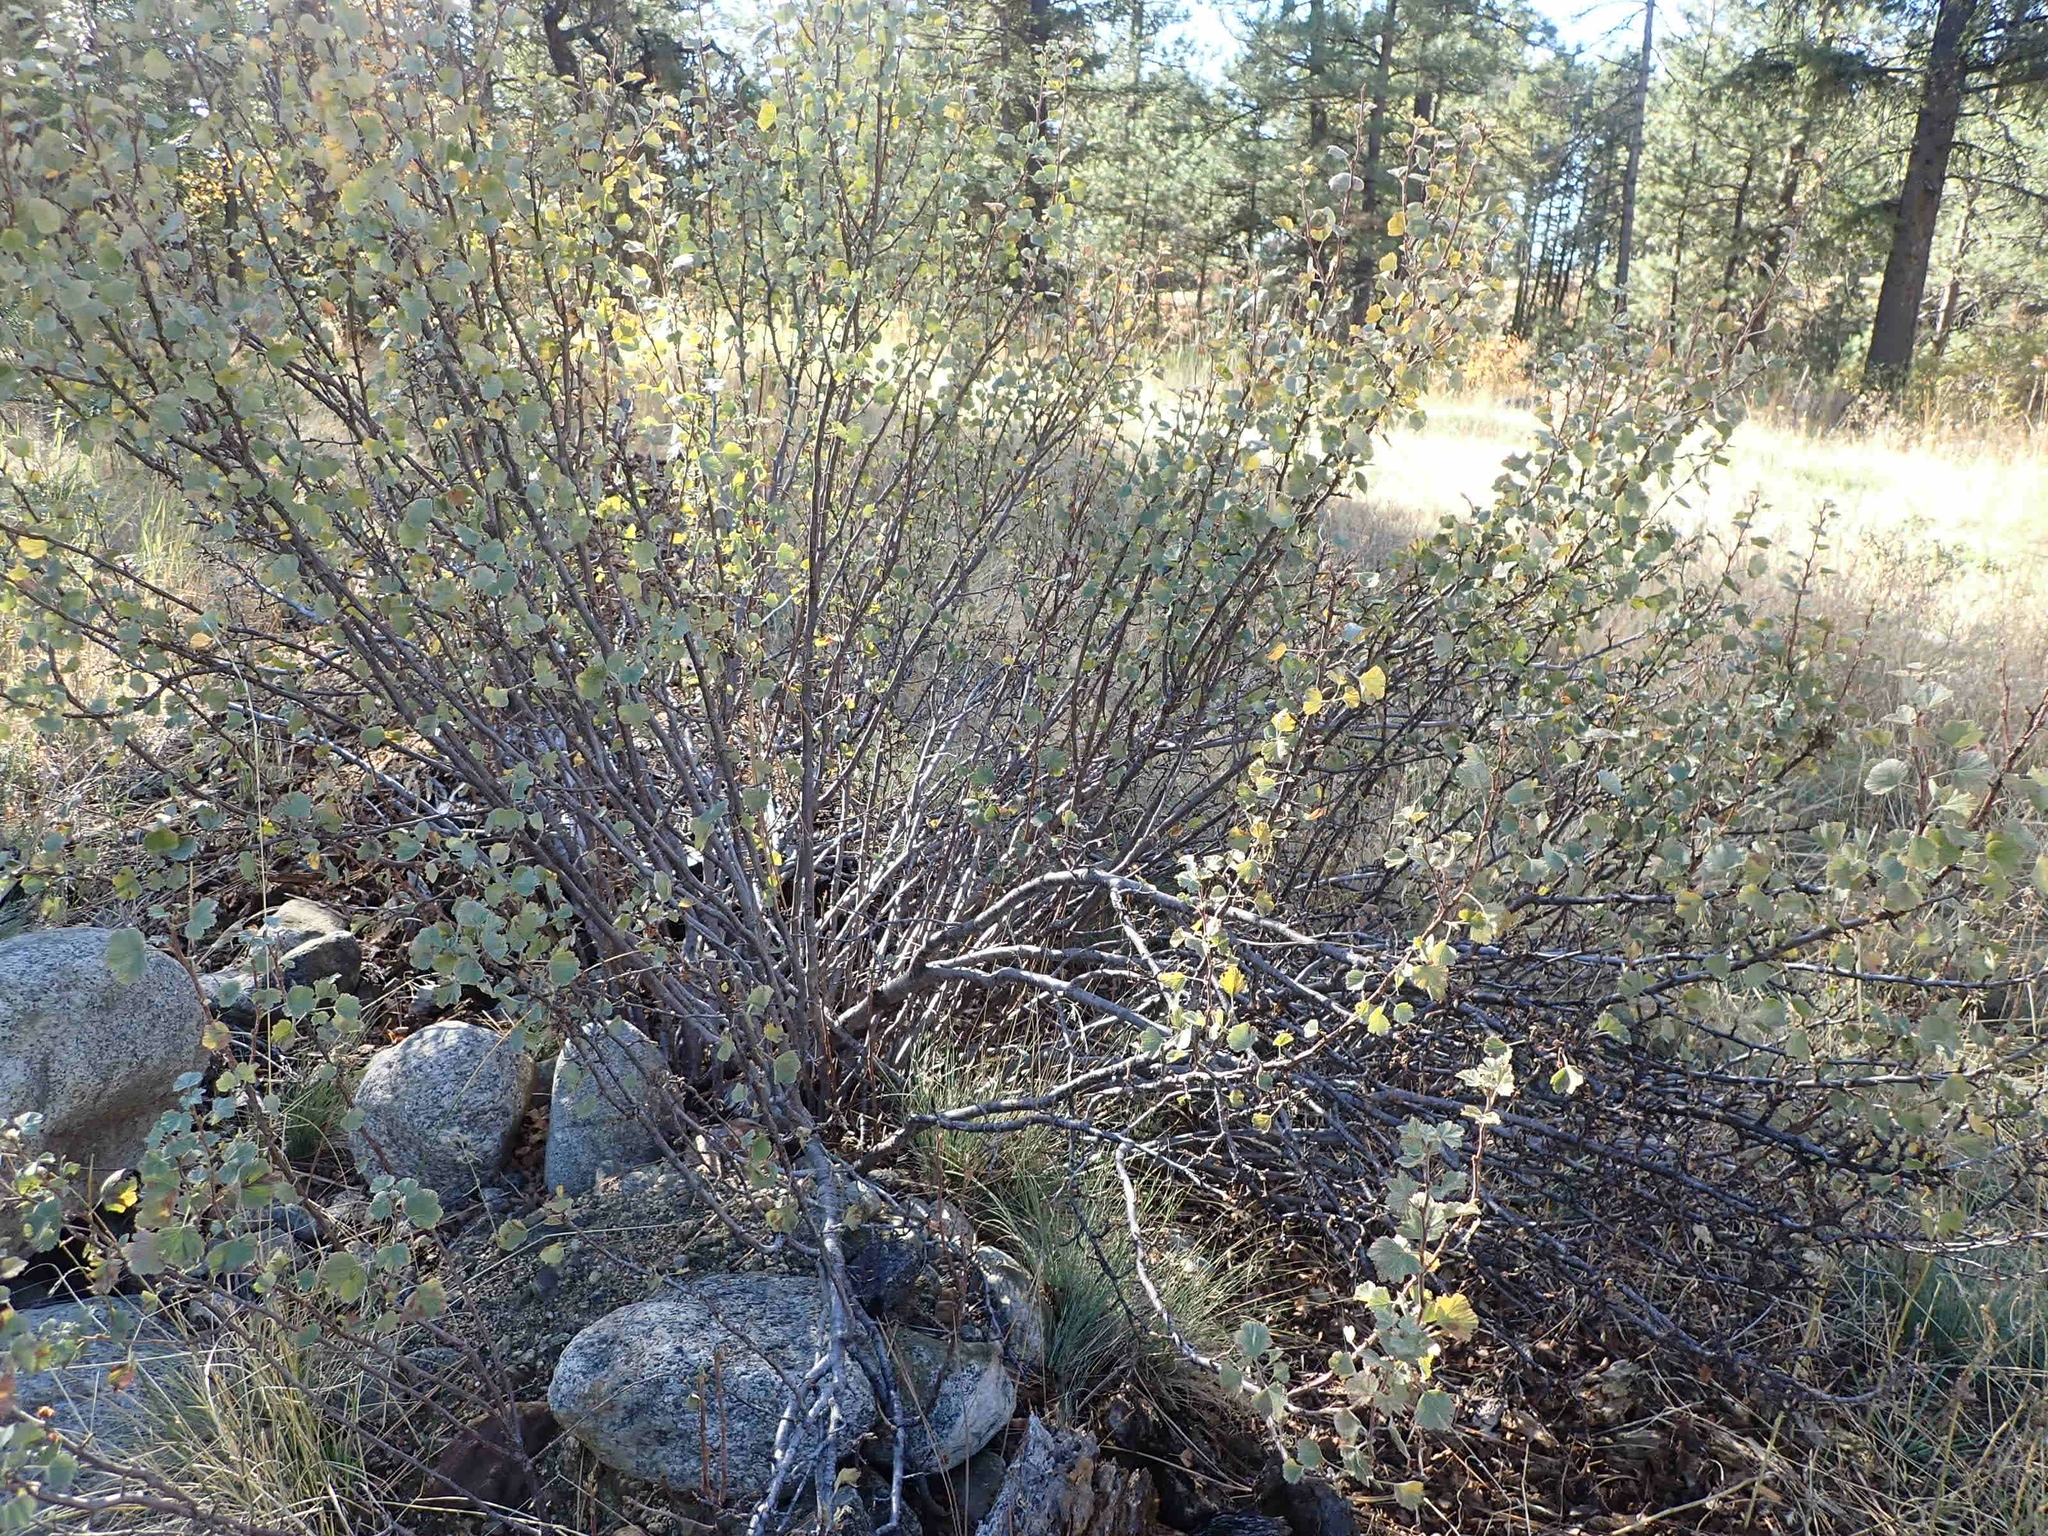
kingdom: Plantae
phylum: Tracheophyta
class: Magnoliopsida
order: Saxifragales
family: Grossulariaceae
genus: Ribes
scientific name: Ribes cereum
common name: Wax currant
